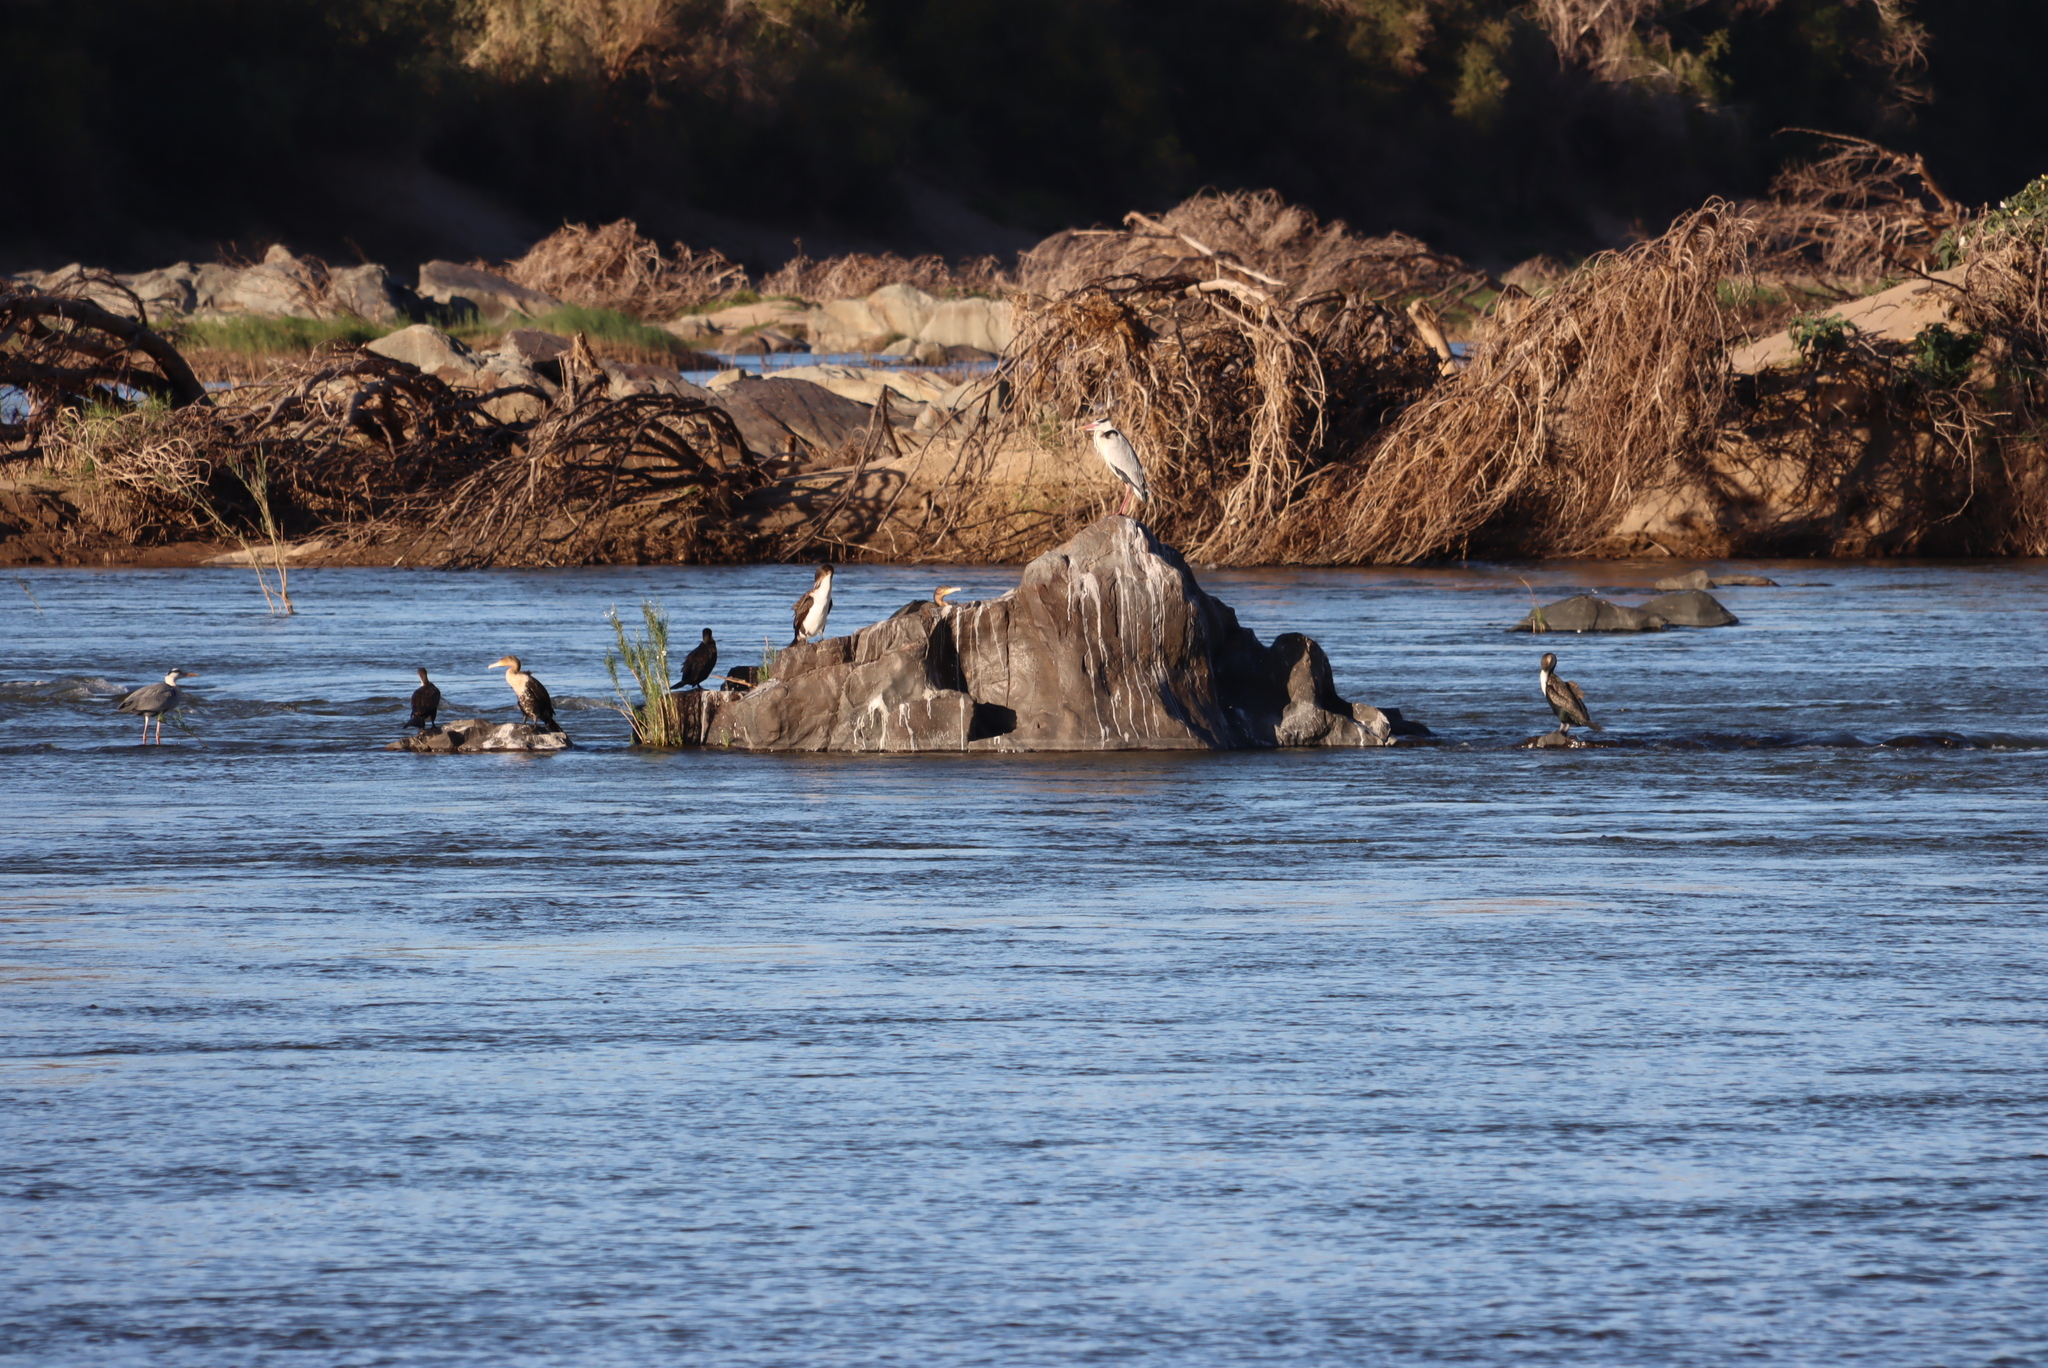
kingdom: Animalia
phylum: Chordata
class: Aves
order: Pelecaniformes
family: Ardeidae
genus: Ardea
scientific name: Ardea cinerea
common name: Grey heron
